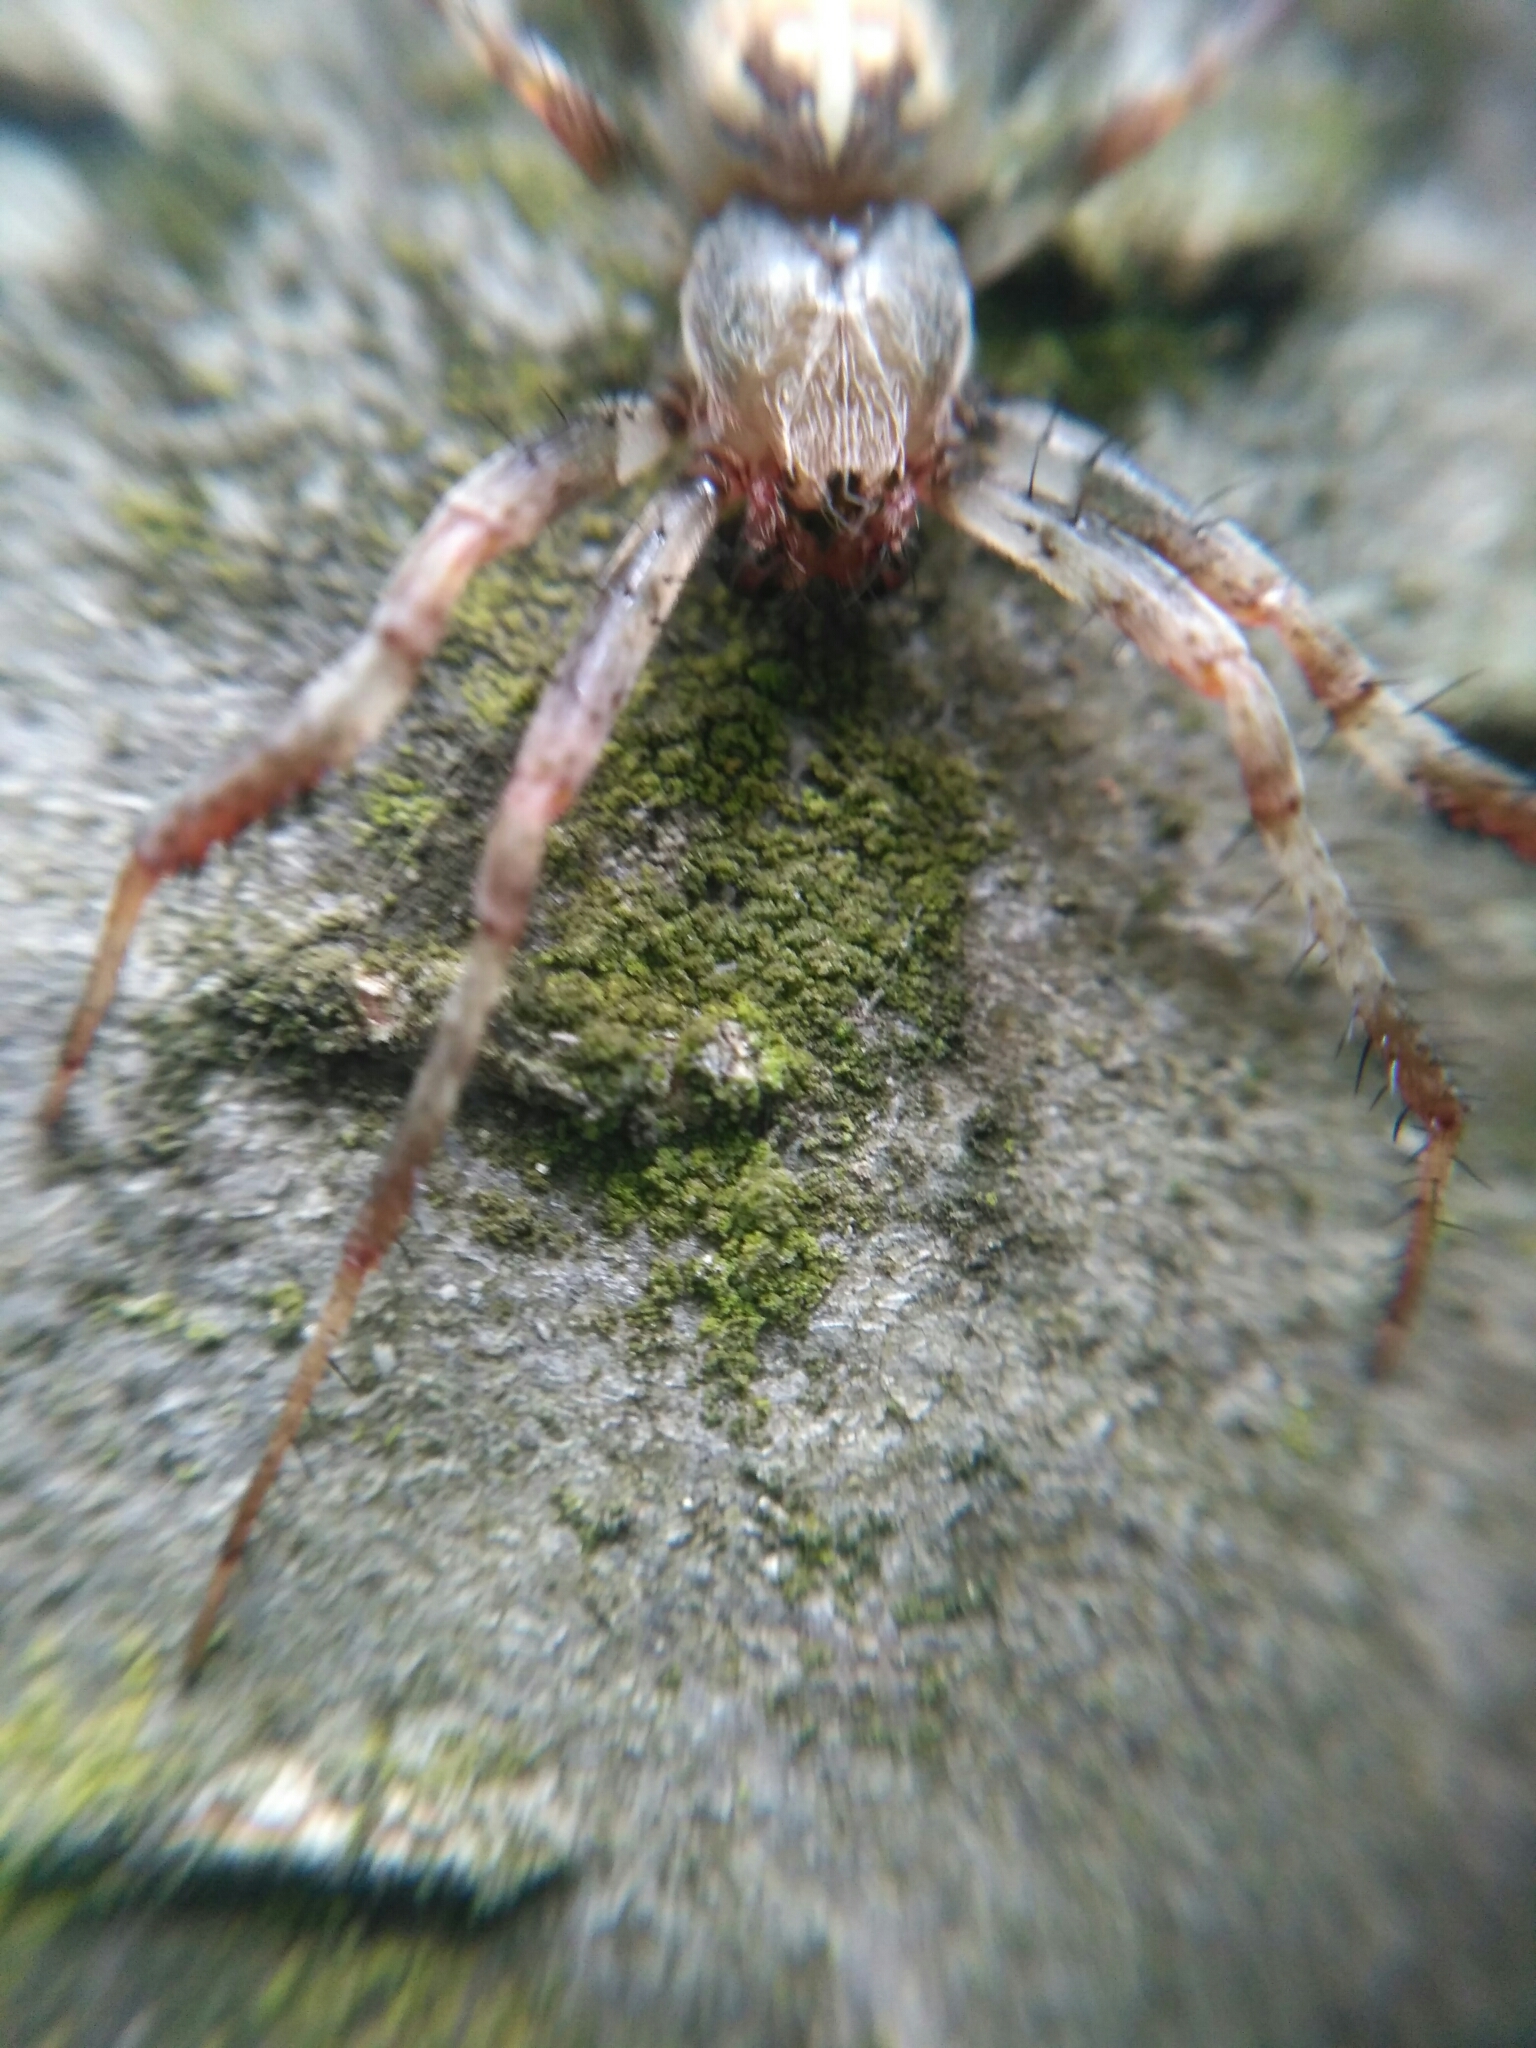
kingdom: Animalia
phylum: Arthropoda
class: Arachnida
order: Araneae
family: Araneidae
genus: Araneus
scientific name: Araneus marmoreus
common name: Marbled orbweaver
